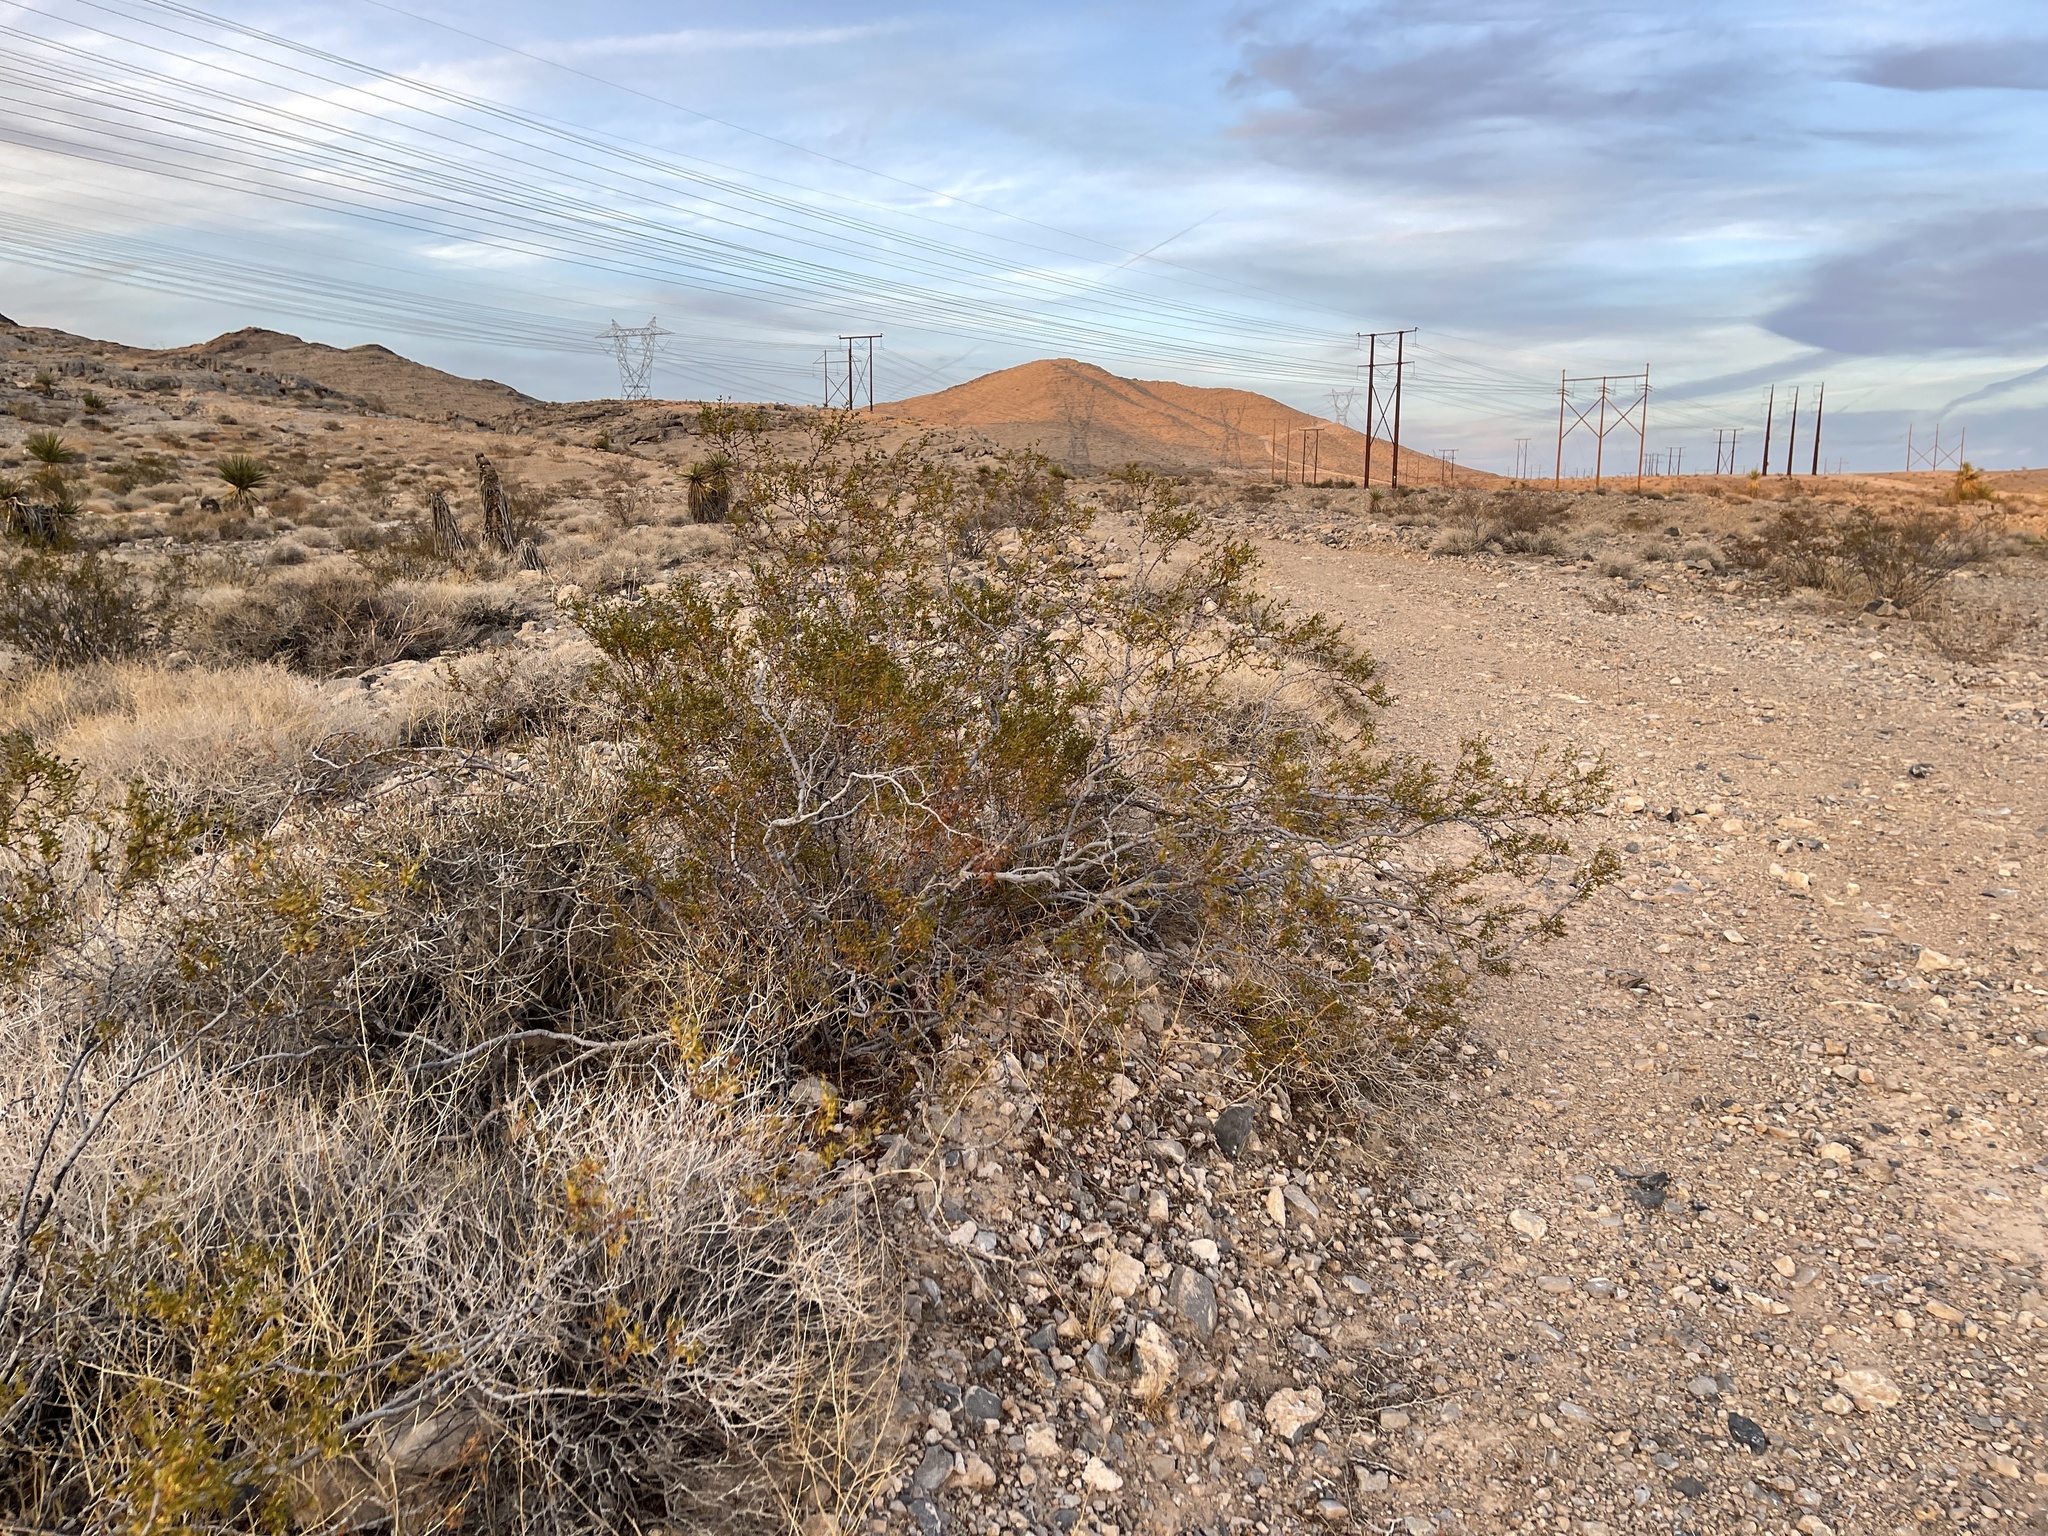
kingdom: Plantae
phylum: Tracheophyta
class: Magnoliopsida
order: Zygophyllales
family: Zygophyllaceae
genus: Larrea
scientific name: Larrea tridentata
